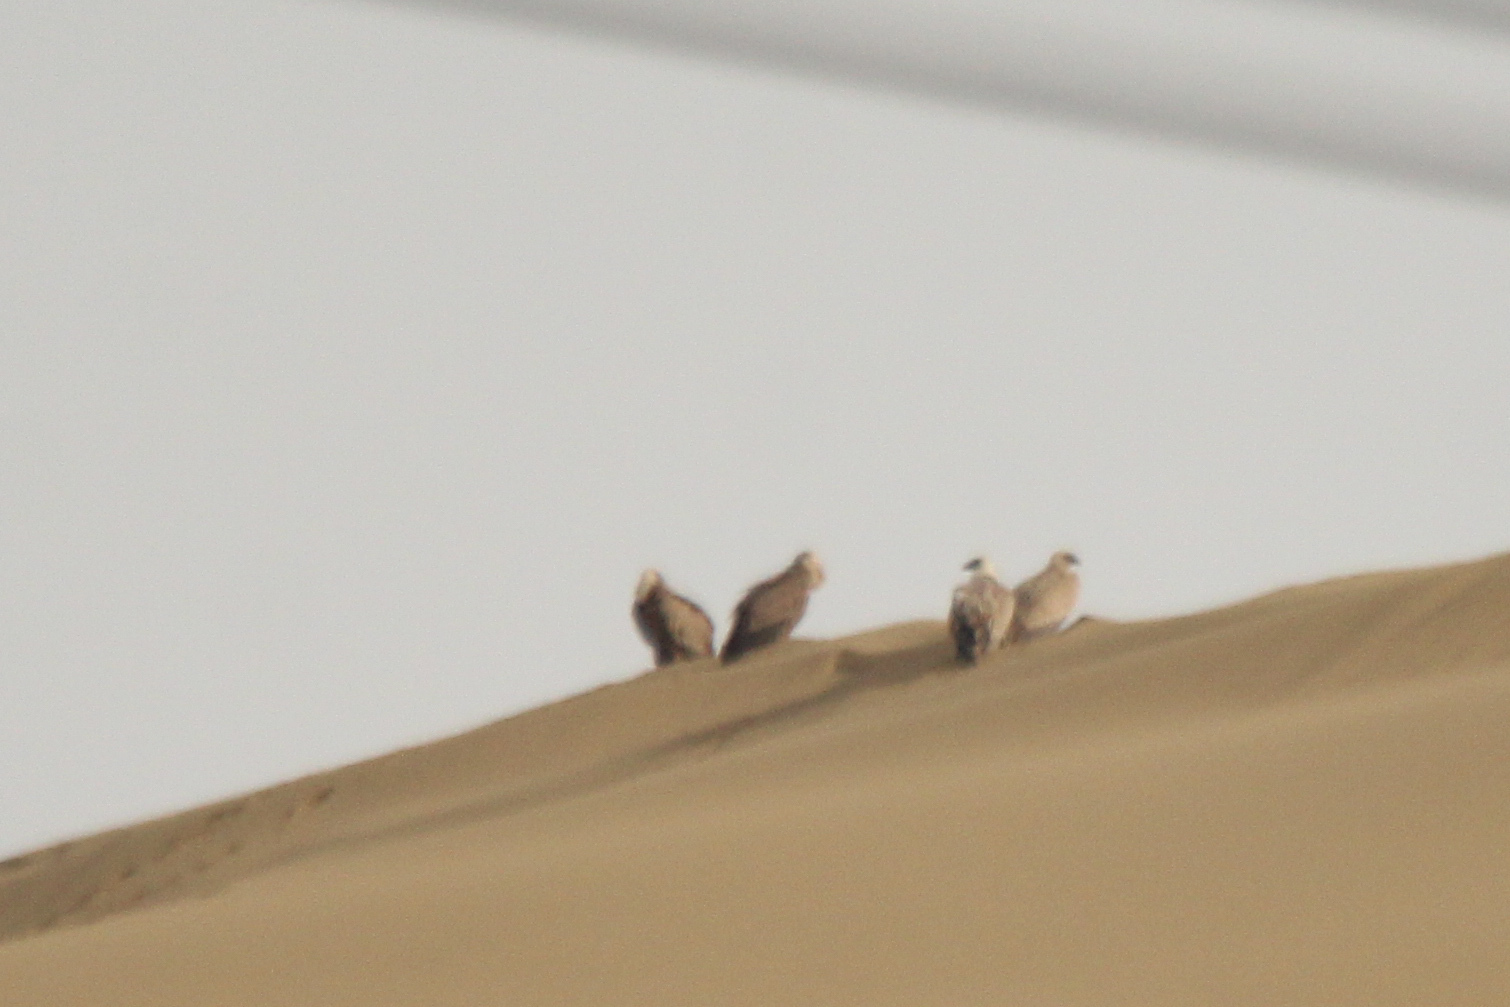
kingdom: Animalia
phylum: Chordata
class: Aves
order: Accipitriformes
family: Accipitridae
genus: Gyps
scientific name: Gyps fulvus
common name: Griffon vulture
